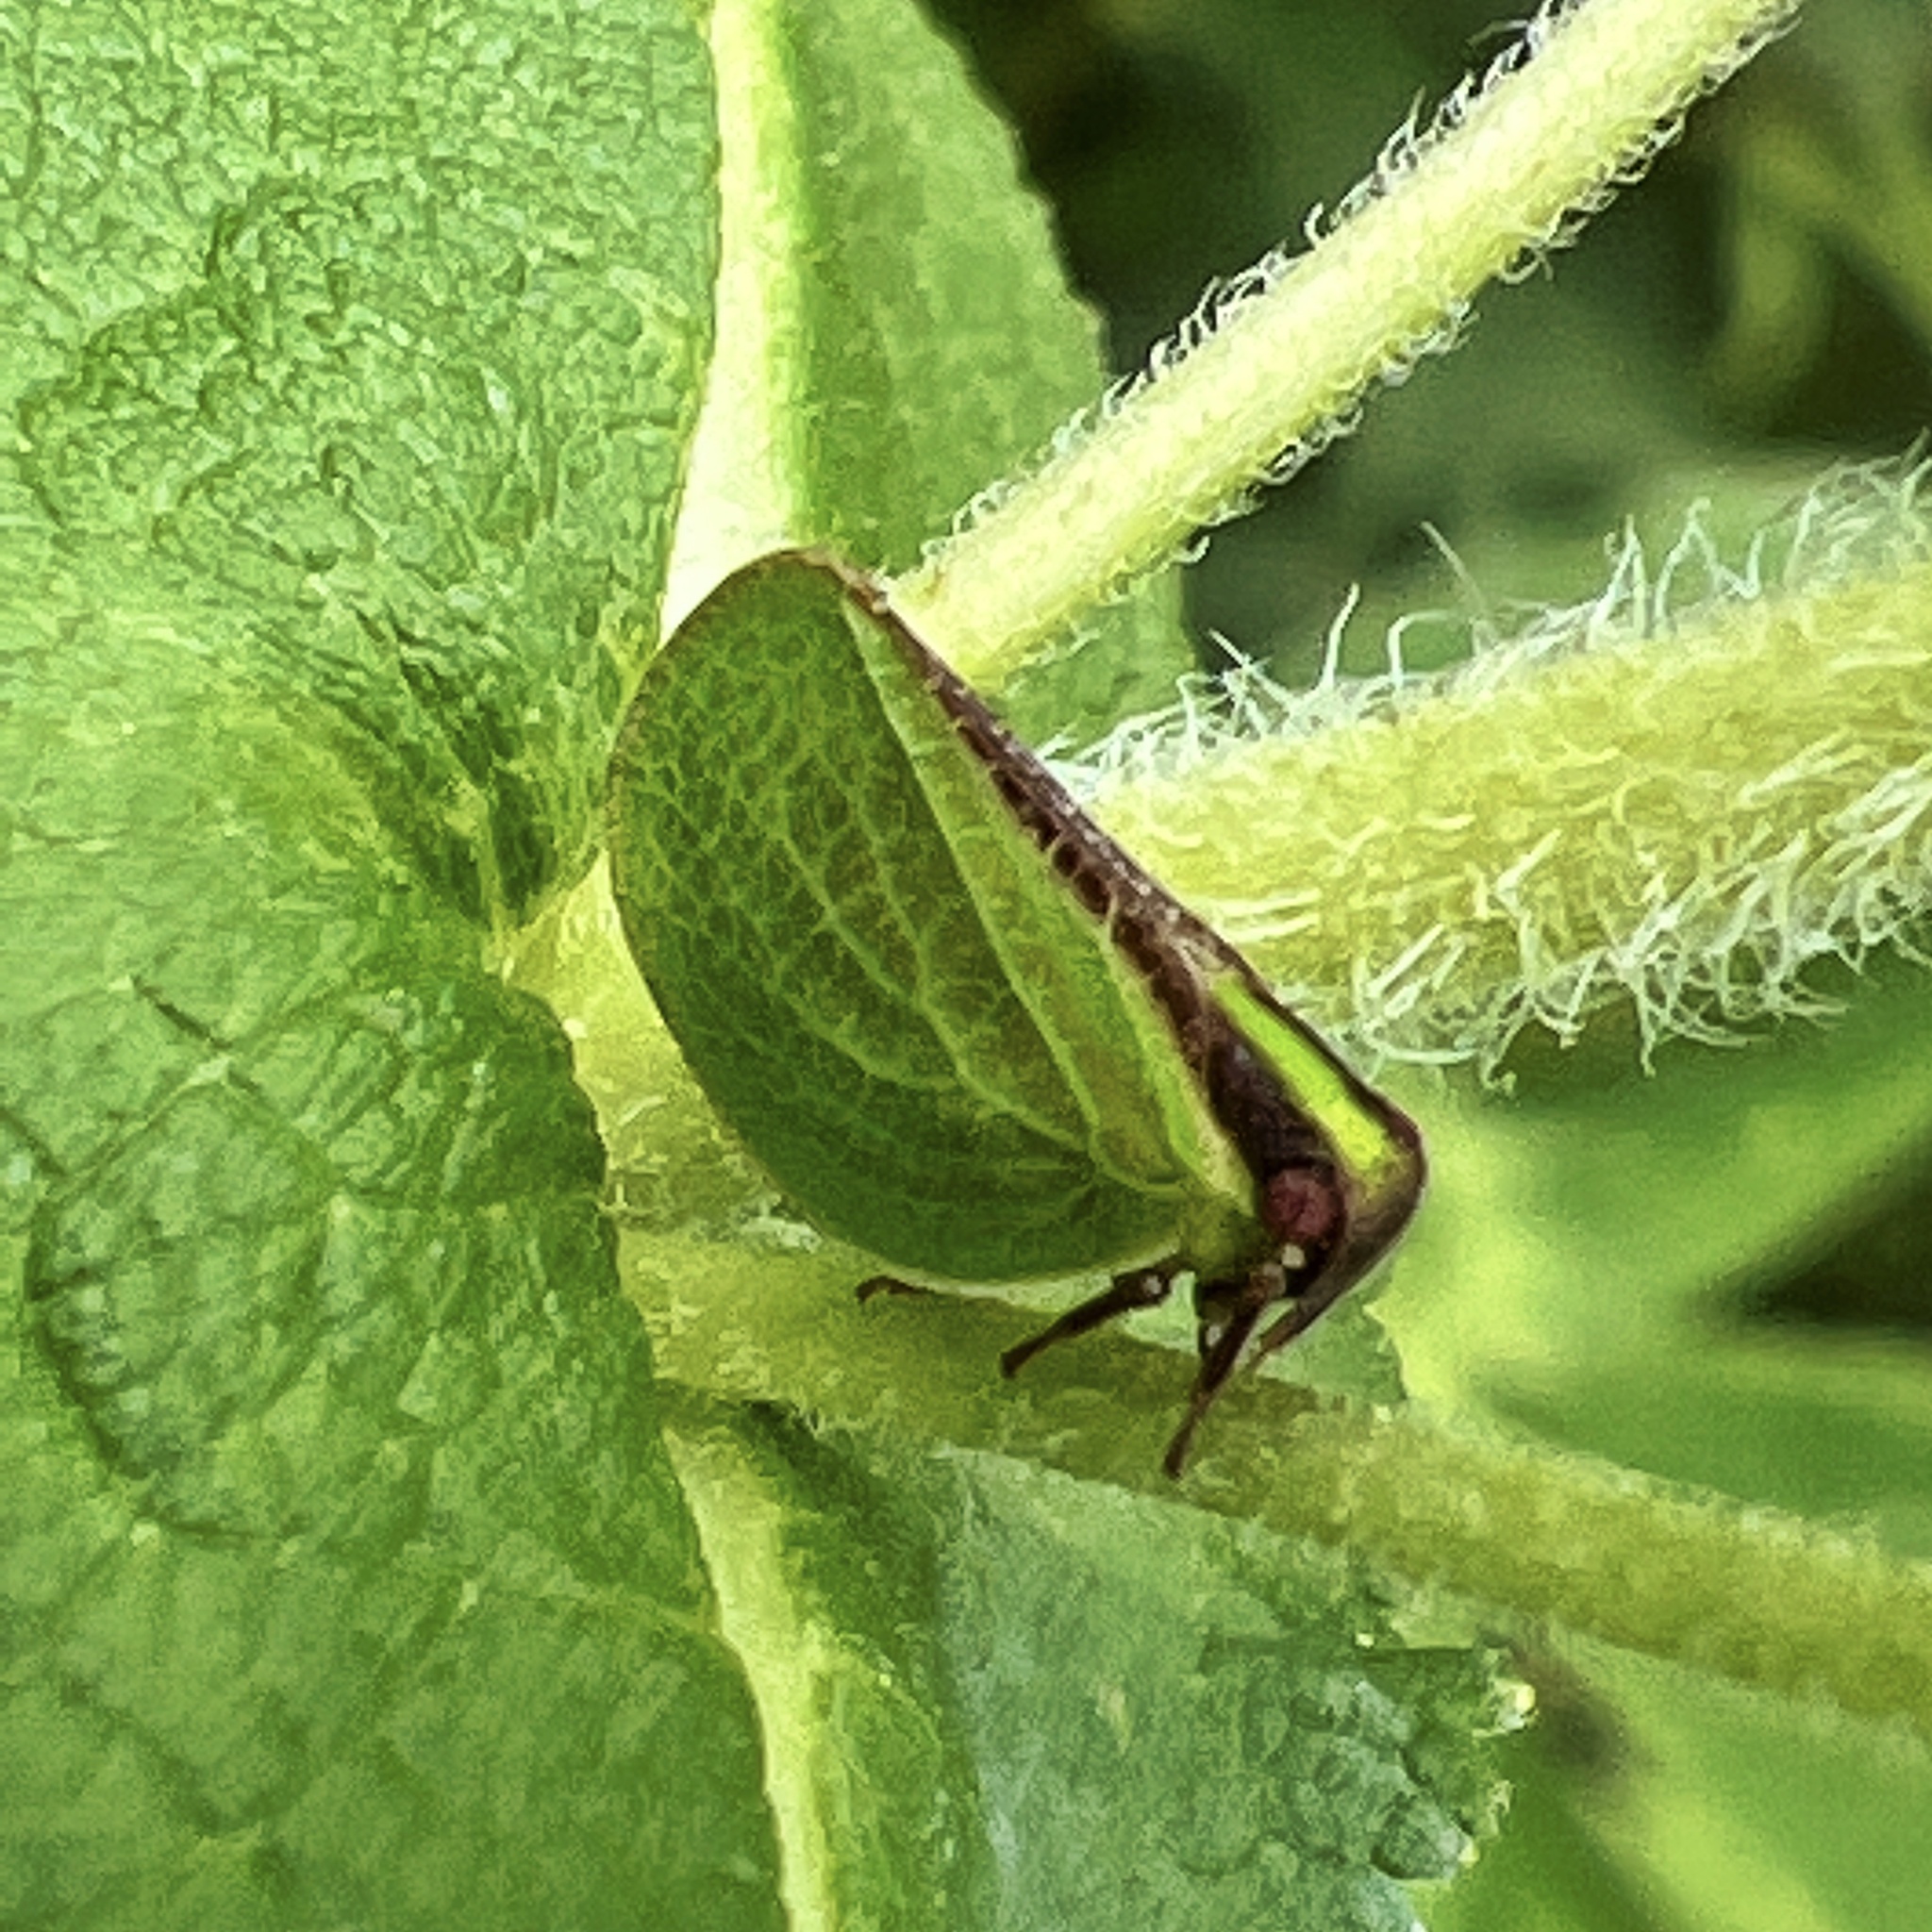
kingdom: Animalia
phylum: Arthropoda
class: Insecta
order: Hemiptera
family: Acanaloniidae
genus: Acanalonia
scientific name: Acanalonia bivittata
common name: Two-striped planthopper
